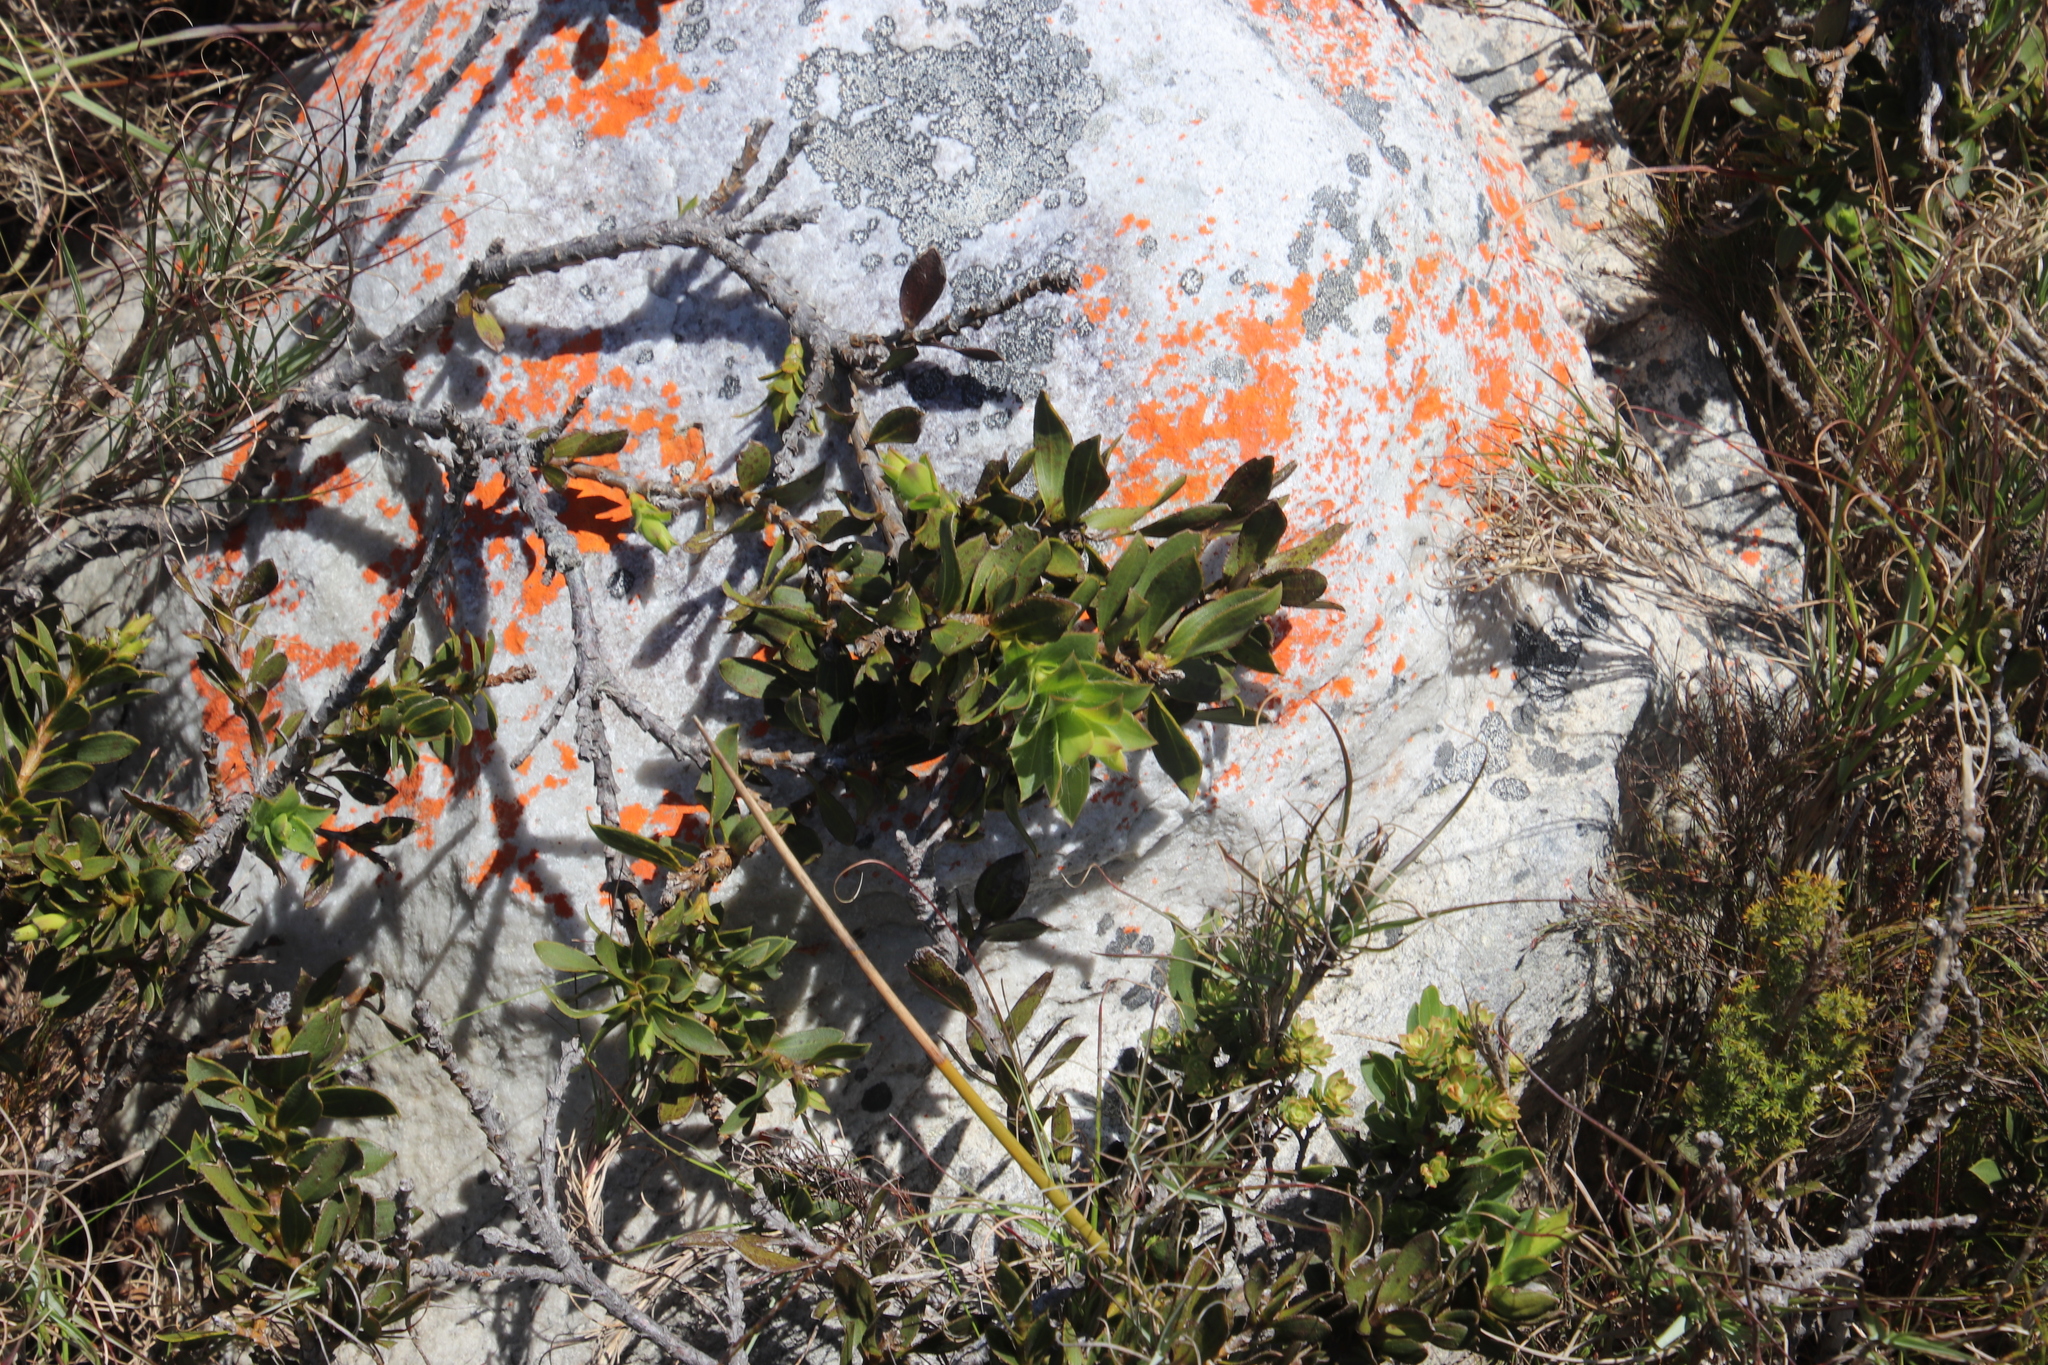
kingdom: Plantae
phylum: Tracheophyta
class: Magnoliopsida
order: Fabales
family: Fabaceae
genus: Liparia
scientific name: Liparia splendens
